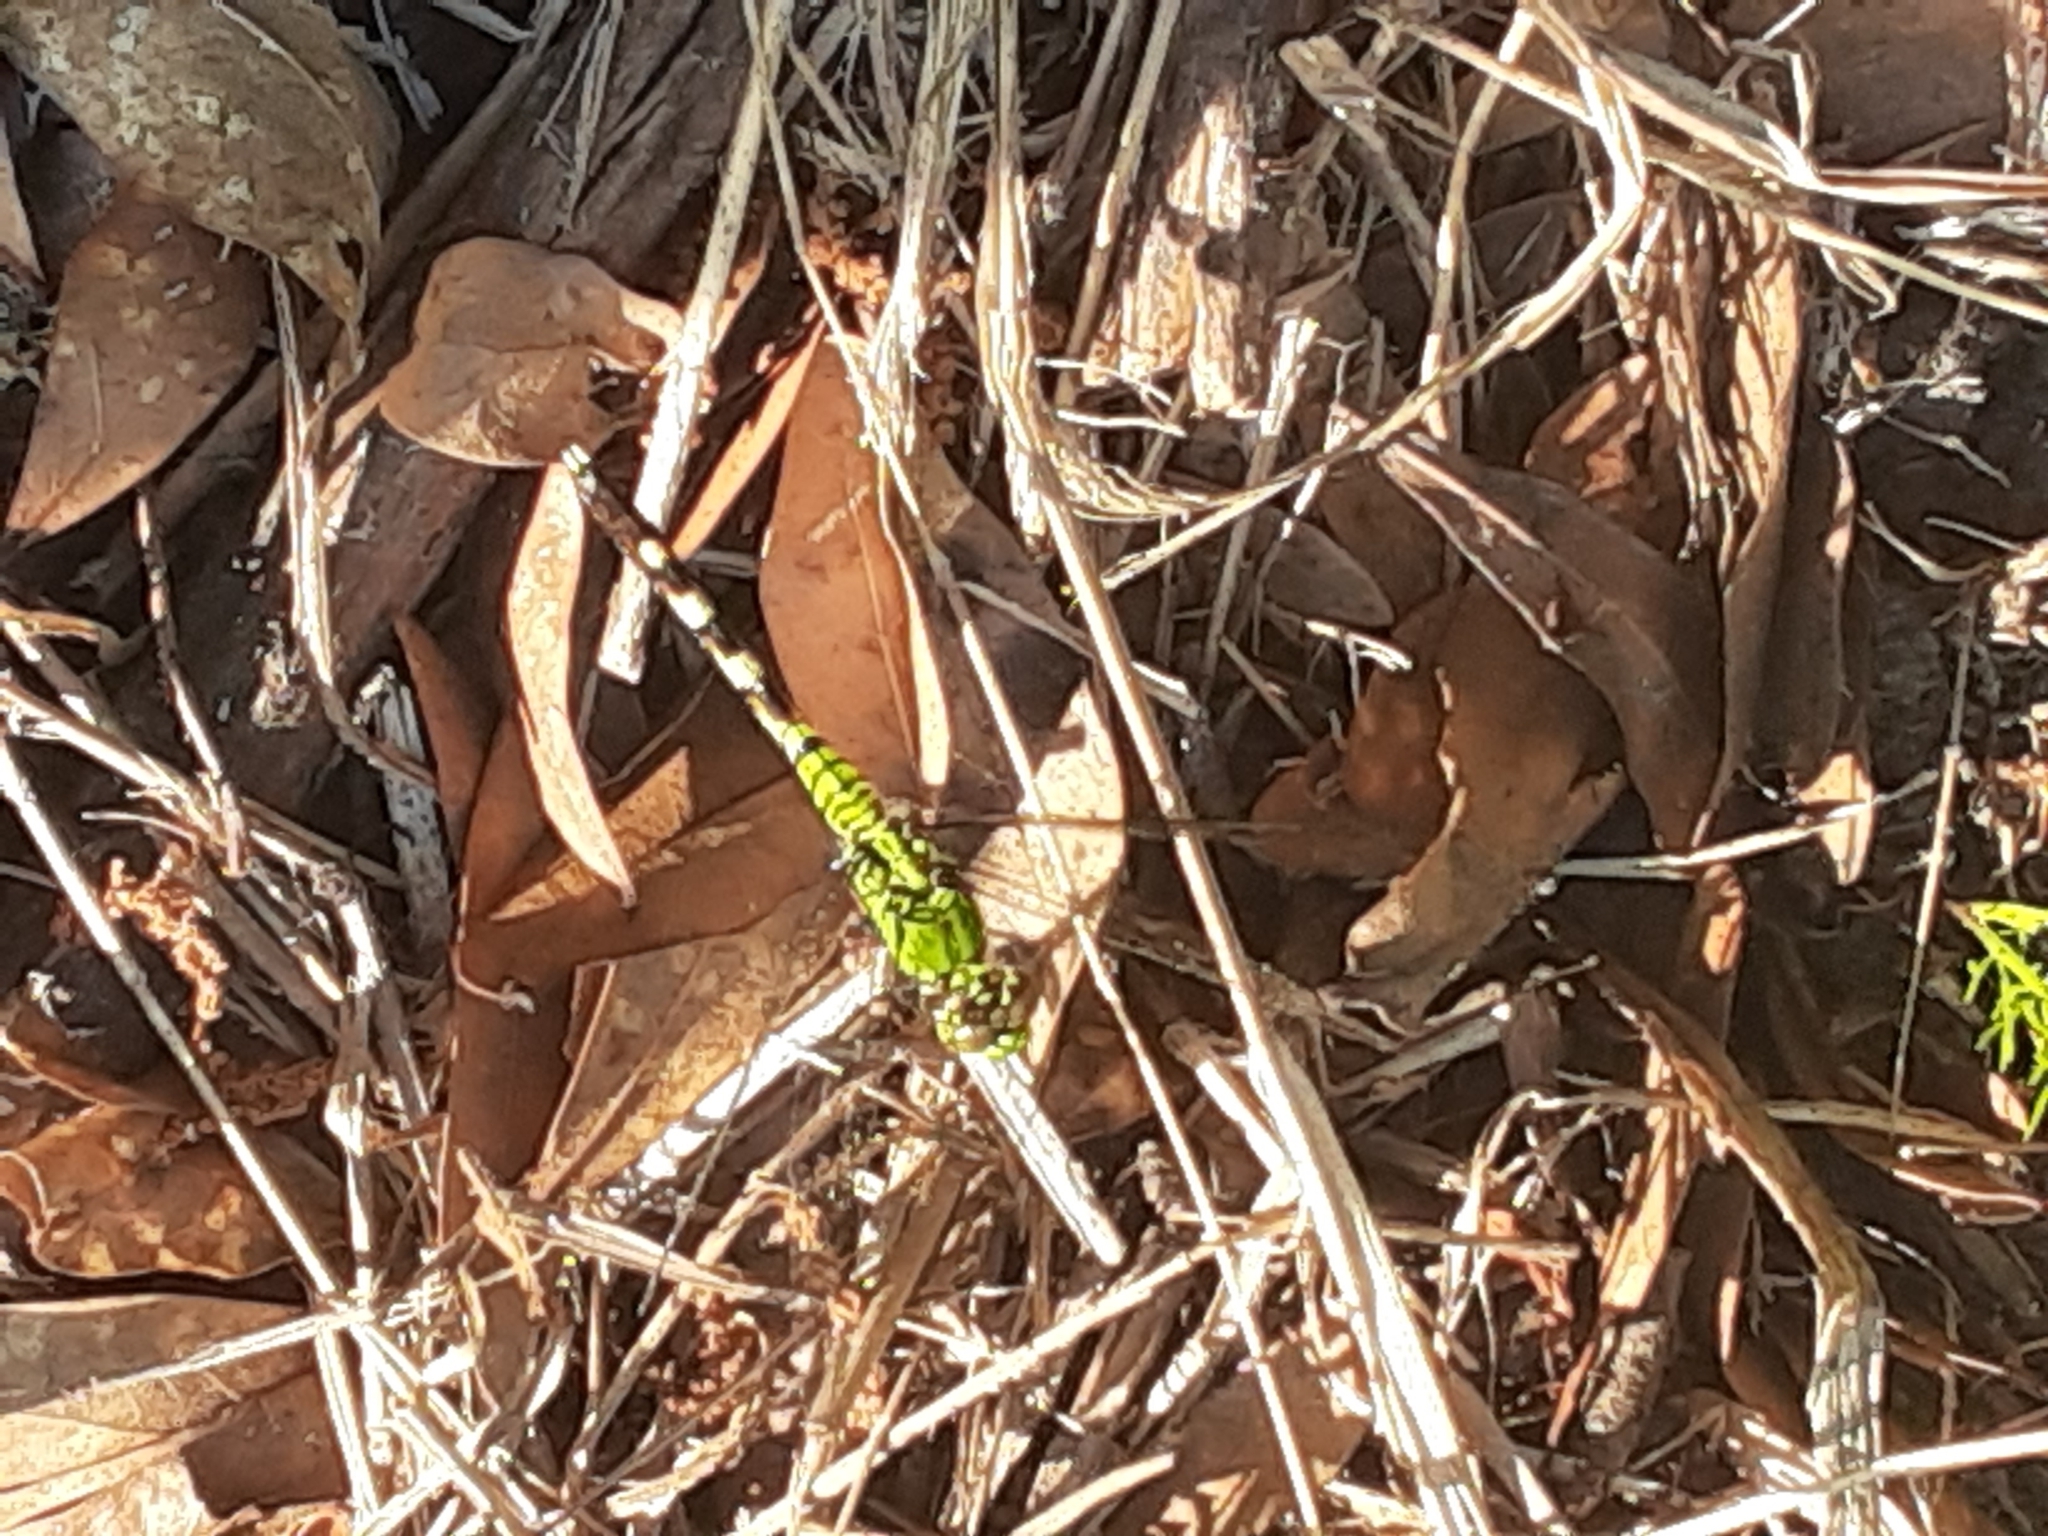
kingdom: Animalia
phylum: Arthropoda
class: Insecta
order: Odonata
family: Libellulidae
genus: Erythemis
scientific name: Erythemis simplicicollis
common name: Eastern pondhawk
